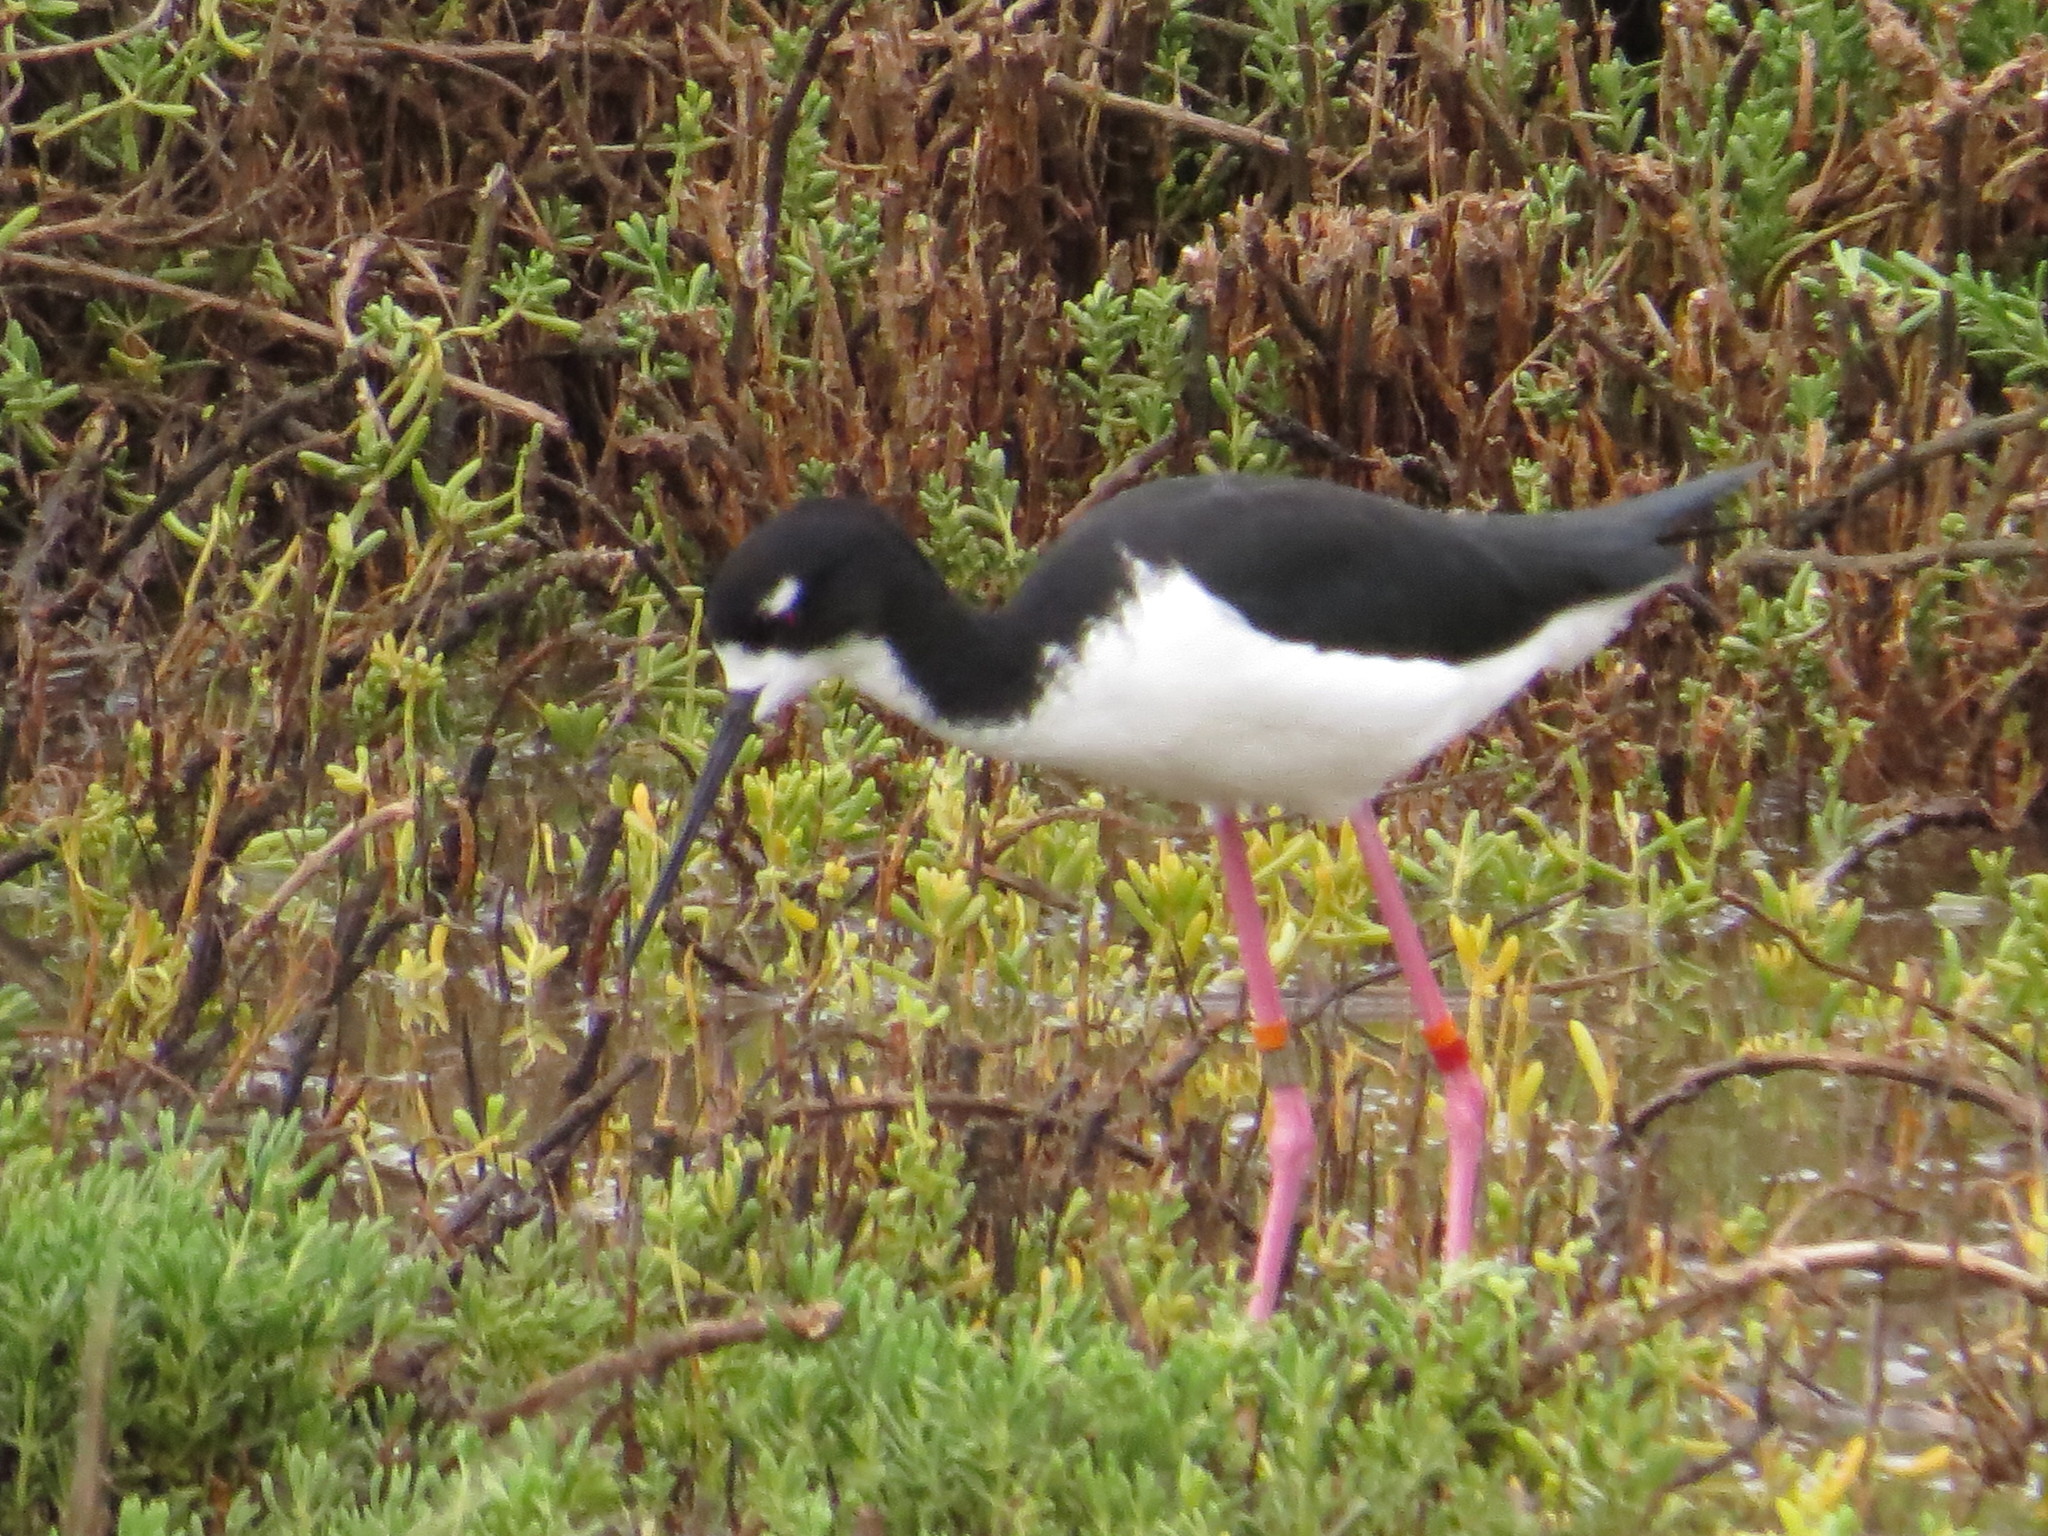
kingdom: Animalia
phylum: Chordata
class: Aves
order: Charadriiformes
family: Recurvirostridae
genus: Himantopus
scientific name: Himantopus mexicanus
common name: Black-necked stilt
